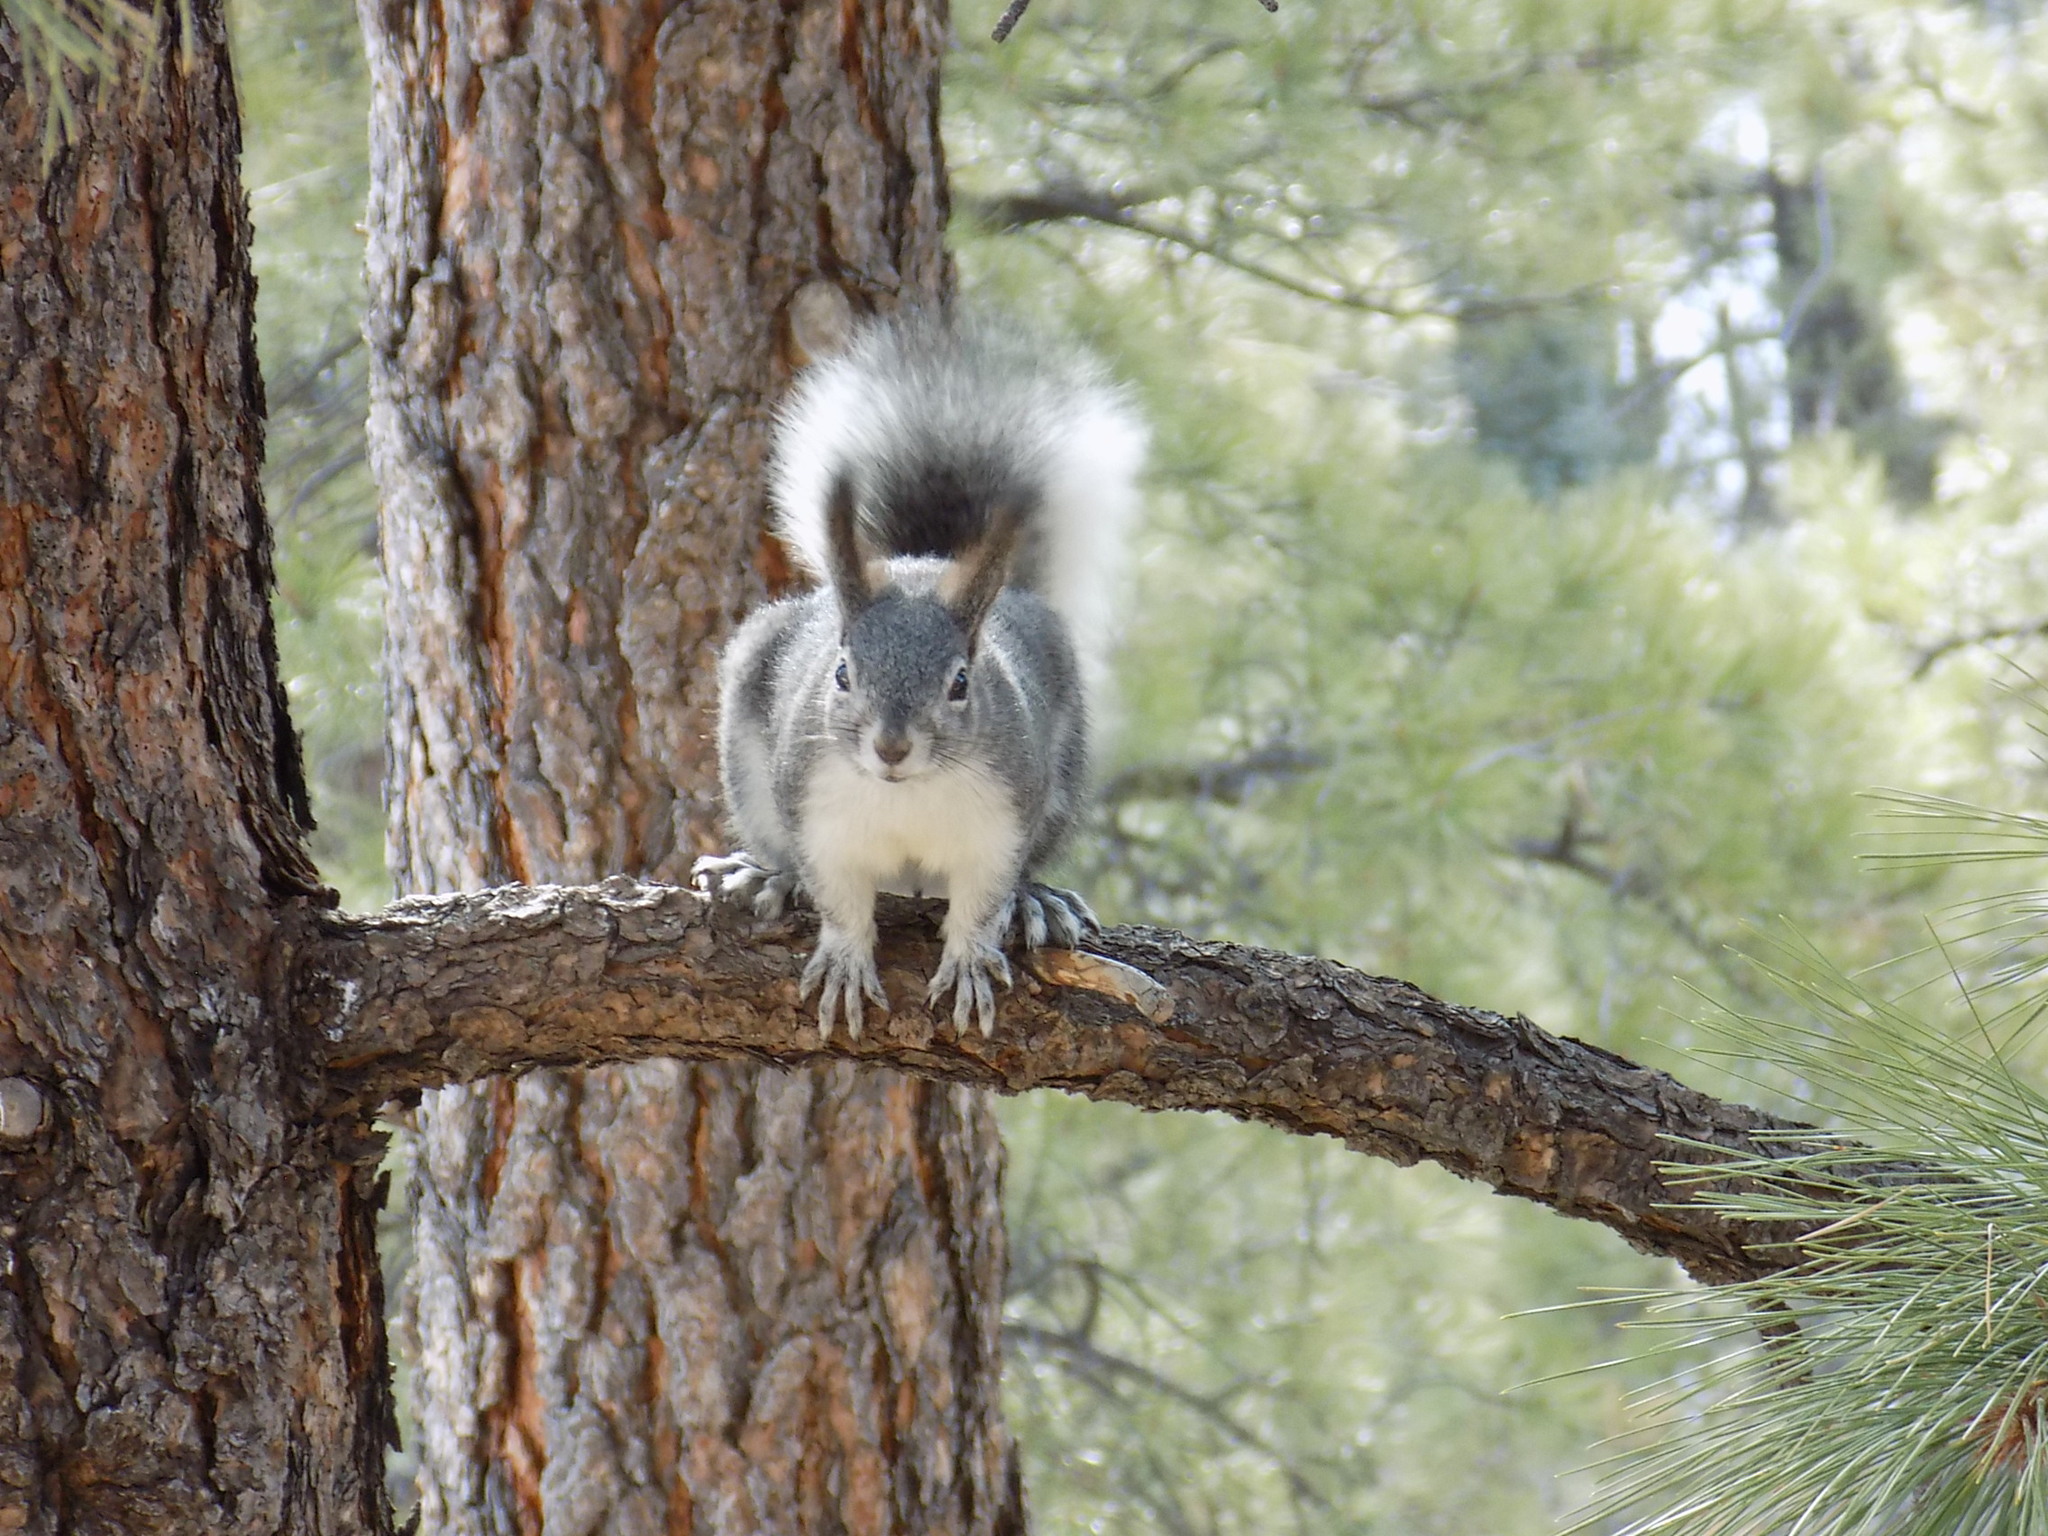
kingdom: Animalia
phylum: Chordata
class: Mammalia
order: Rodentia
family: Sciuridae
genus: Sciurus
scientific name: Sciurus aberti
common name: Abert's squirrel
